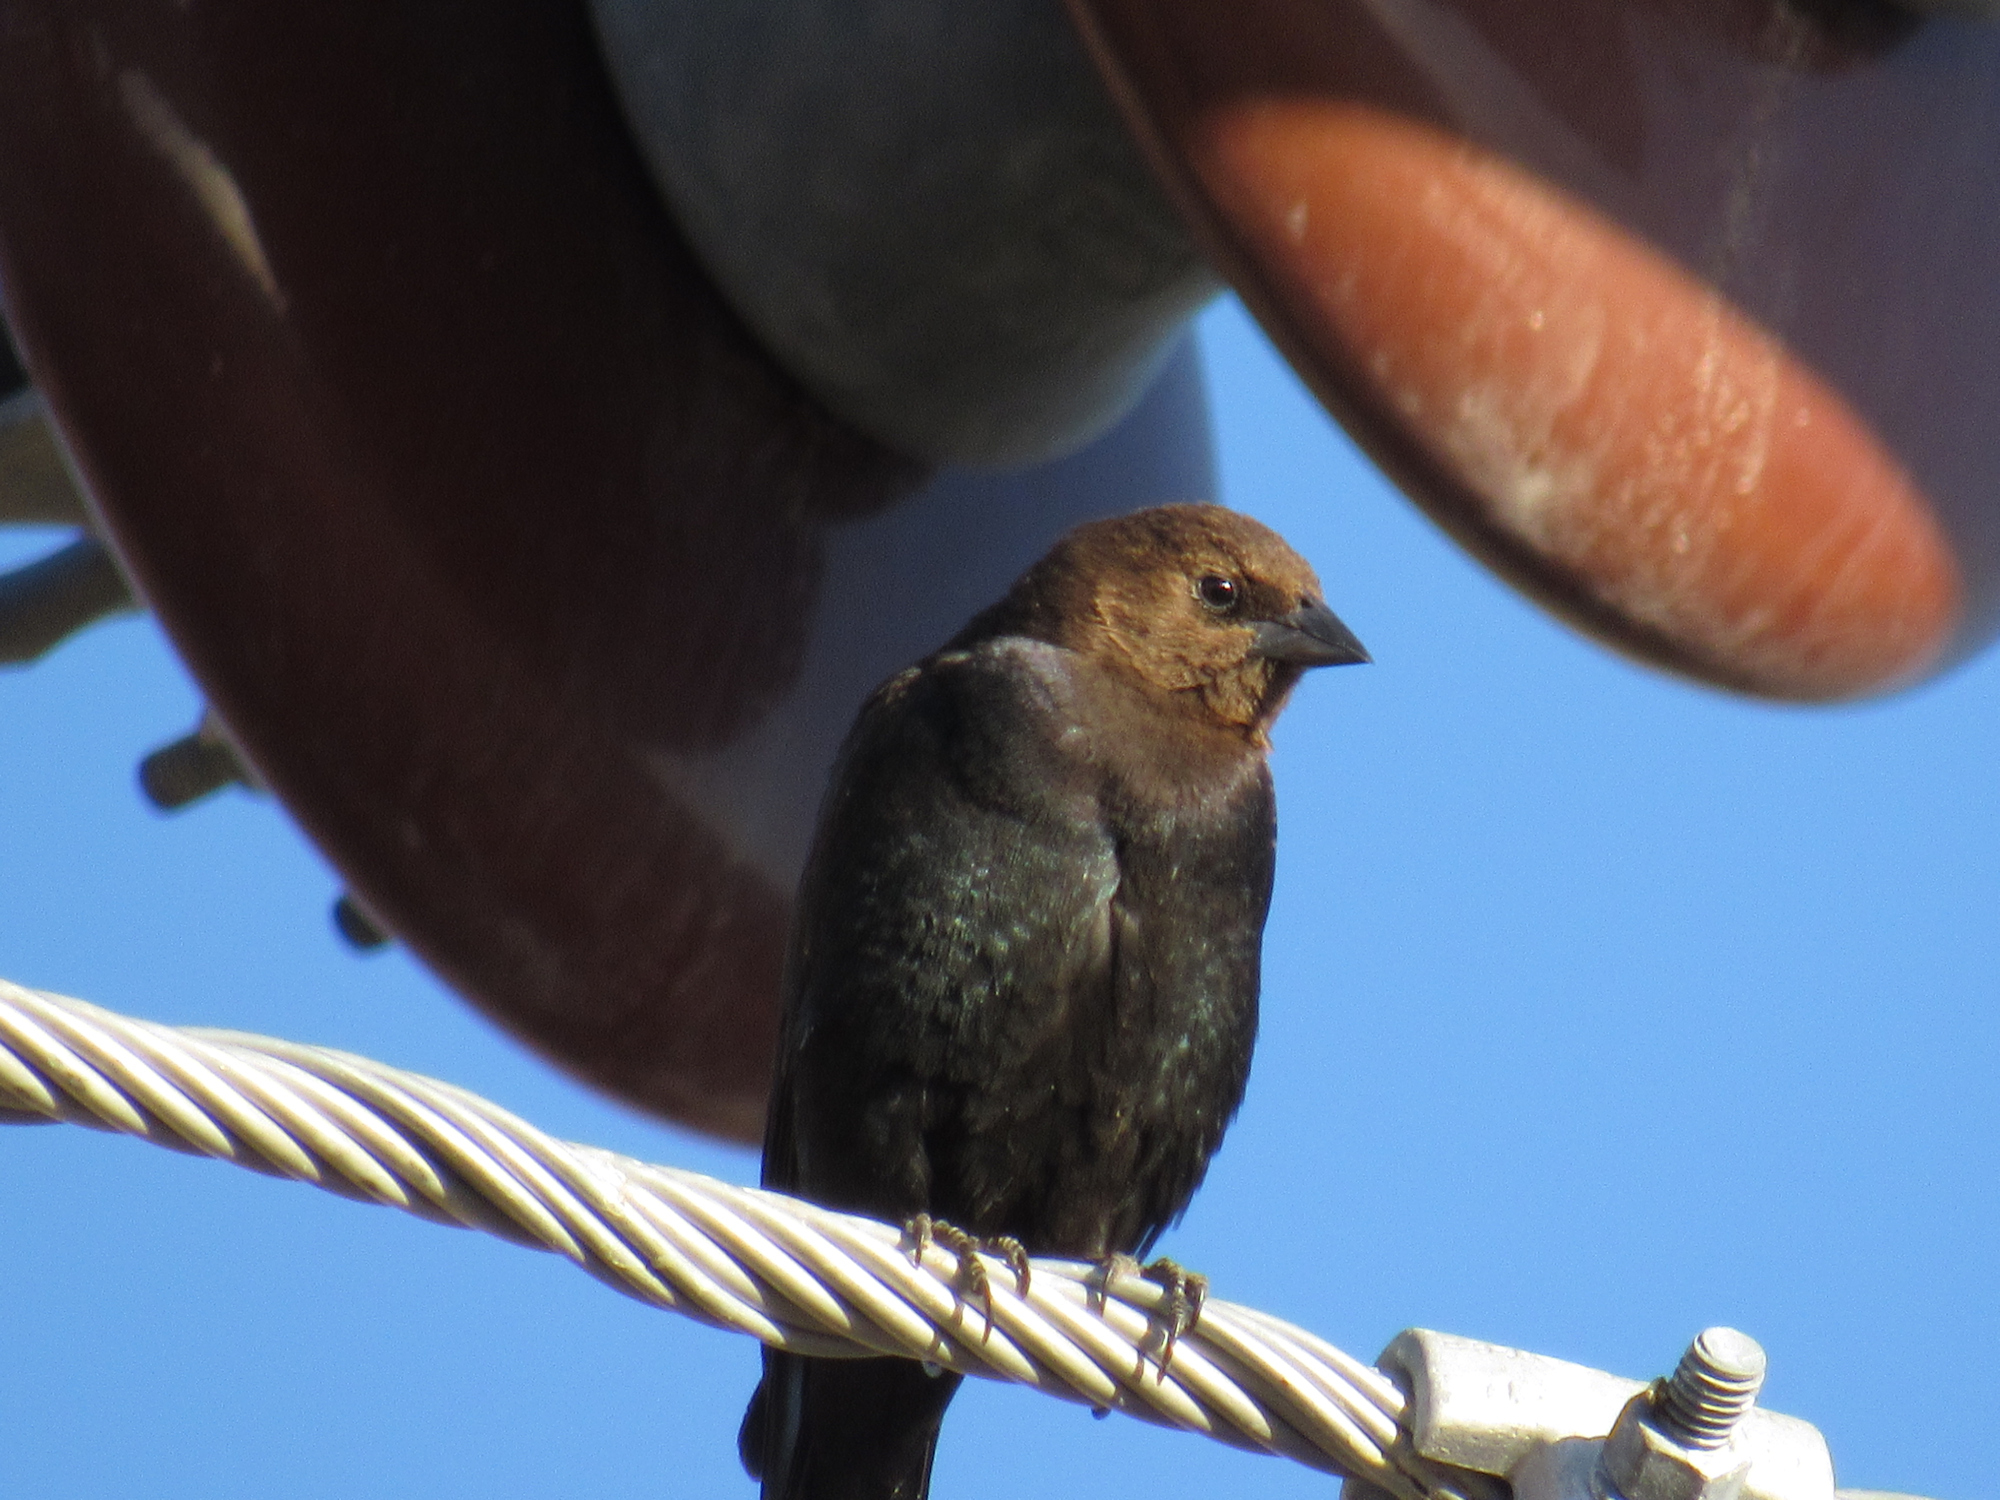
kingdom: Animalia
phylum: Chordata
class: Aves
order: Passeriformes
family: Icteridae
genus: Molothrus
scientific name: Molothrus ater
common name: Brown-headed cowbird
